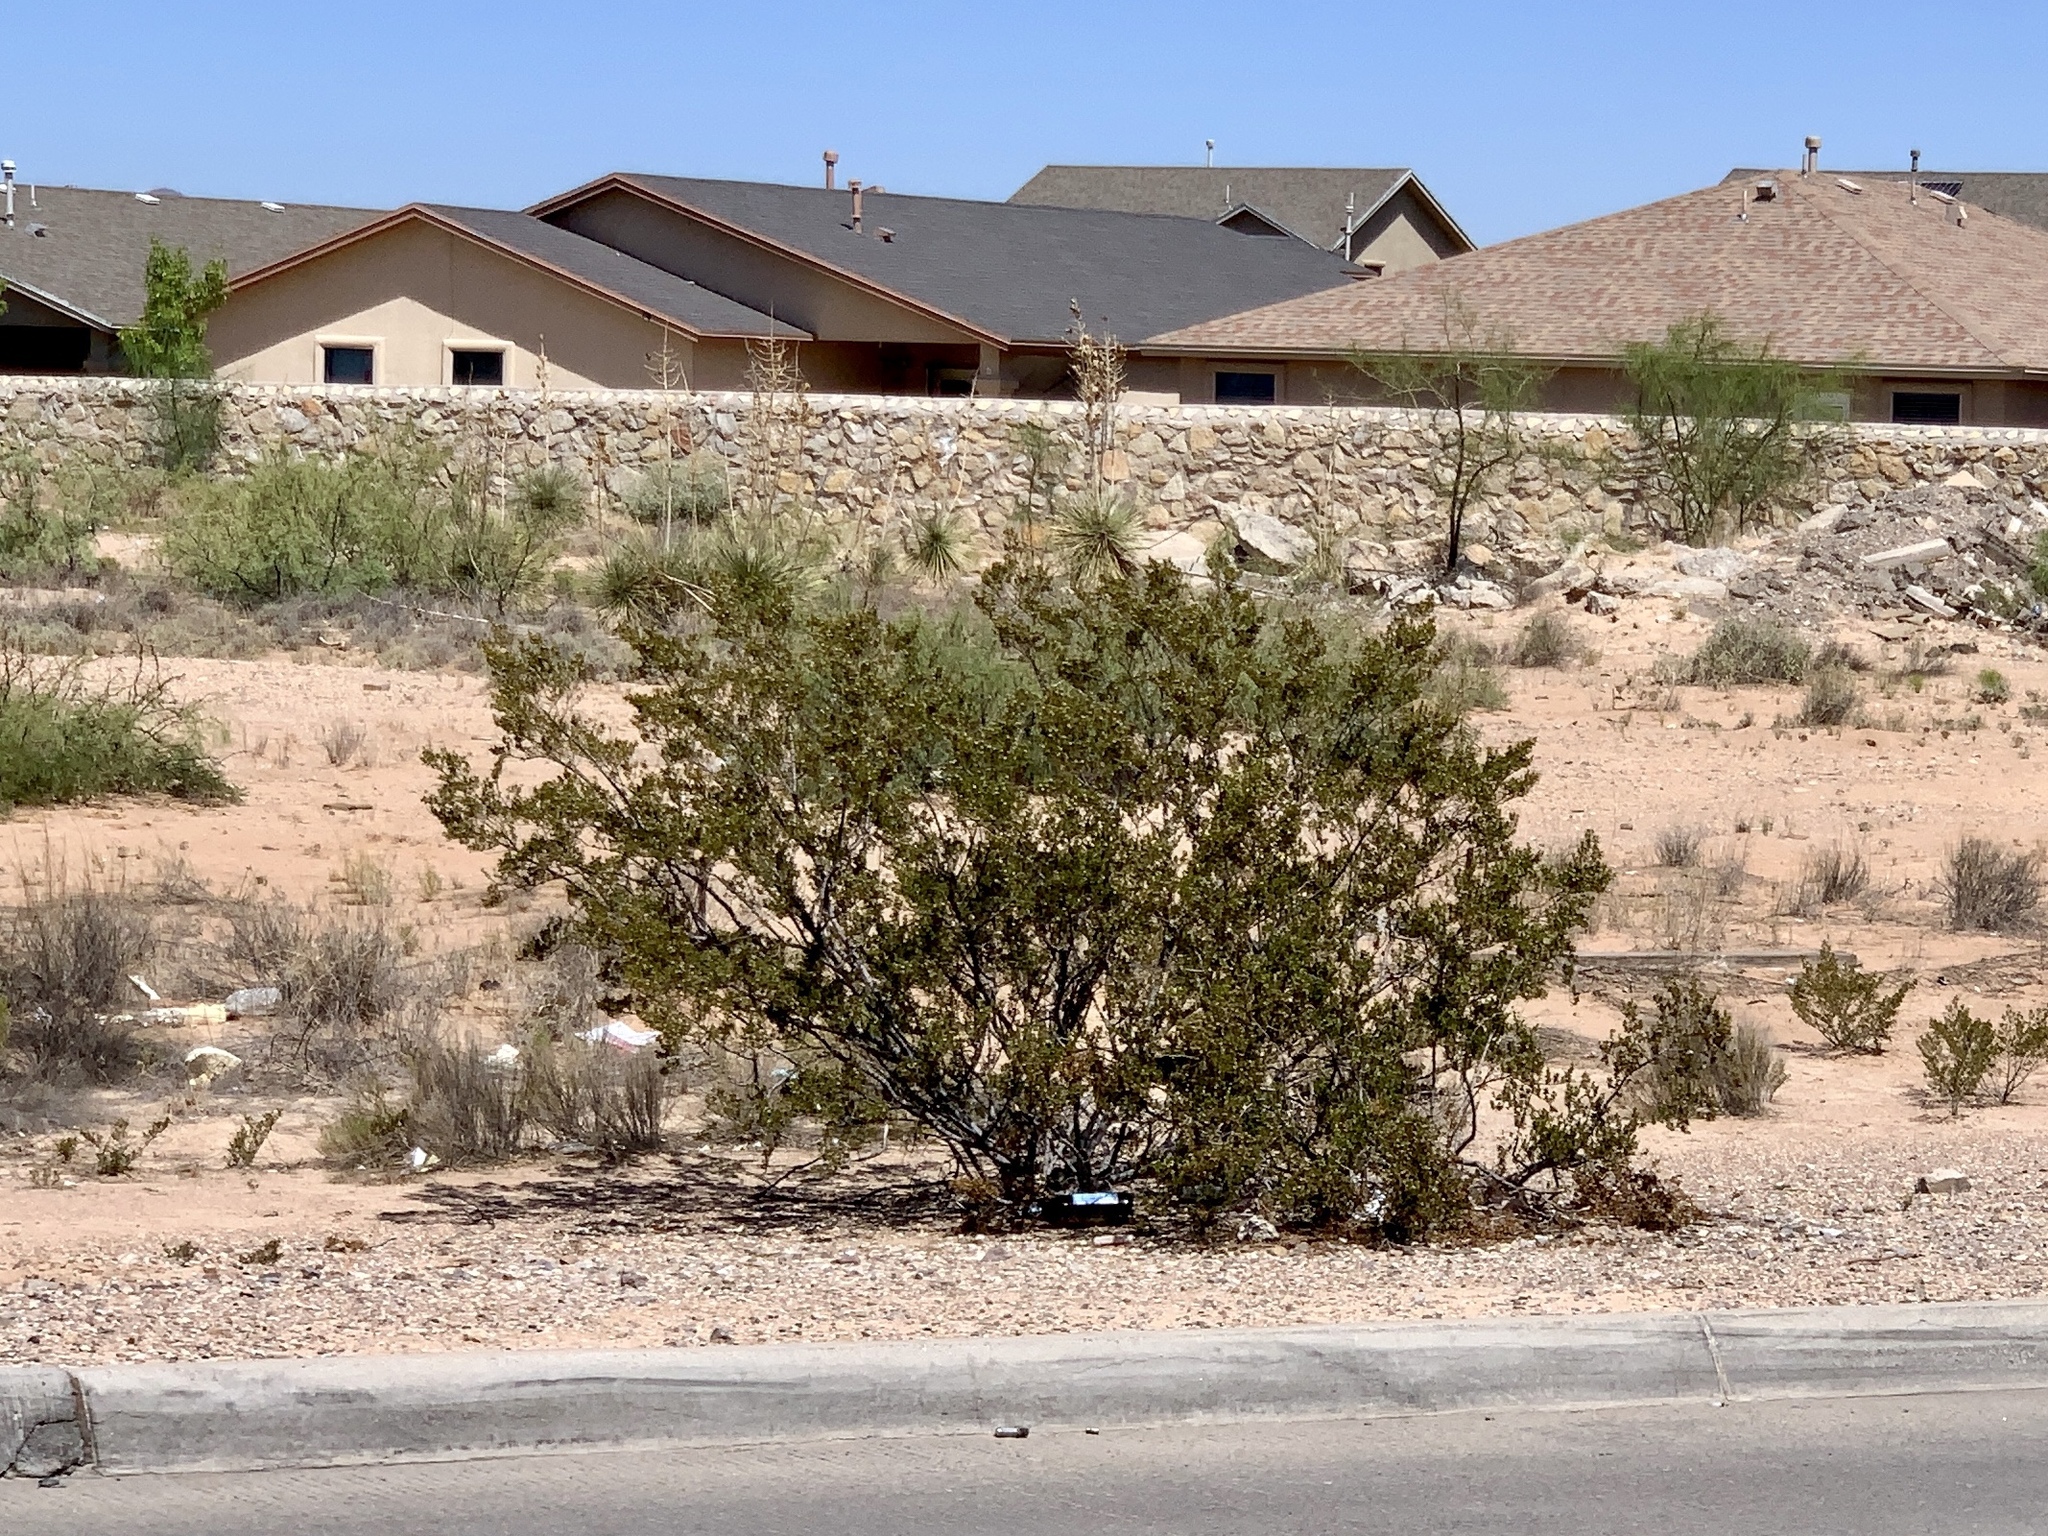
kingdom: Plantae
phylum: Tracheophyta
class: Magnoliopsida
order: Zygophyllales
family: Zygophyllaceae
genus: Larrea
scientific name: Larrea tridentata
